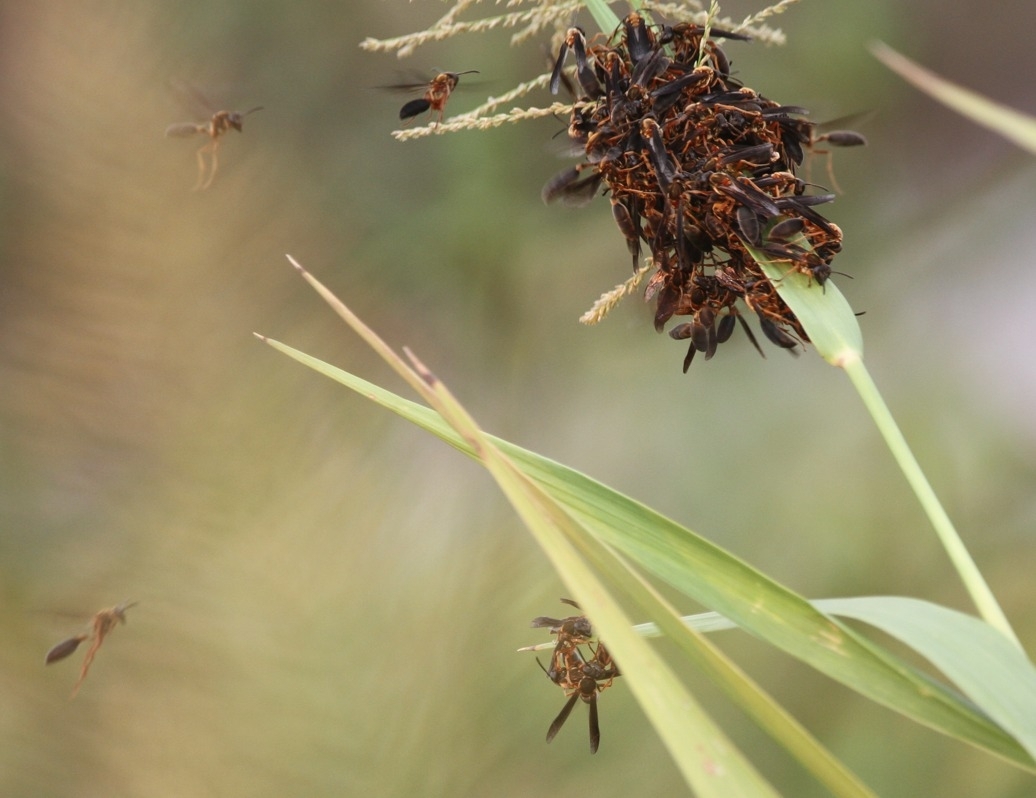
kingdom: Animalia
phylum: Arthropoda
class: Insecta
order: Hymenoptera
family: Eumenidae
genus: Polybia
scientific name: Polybia sericea
